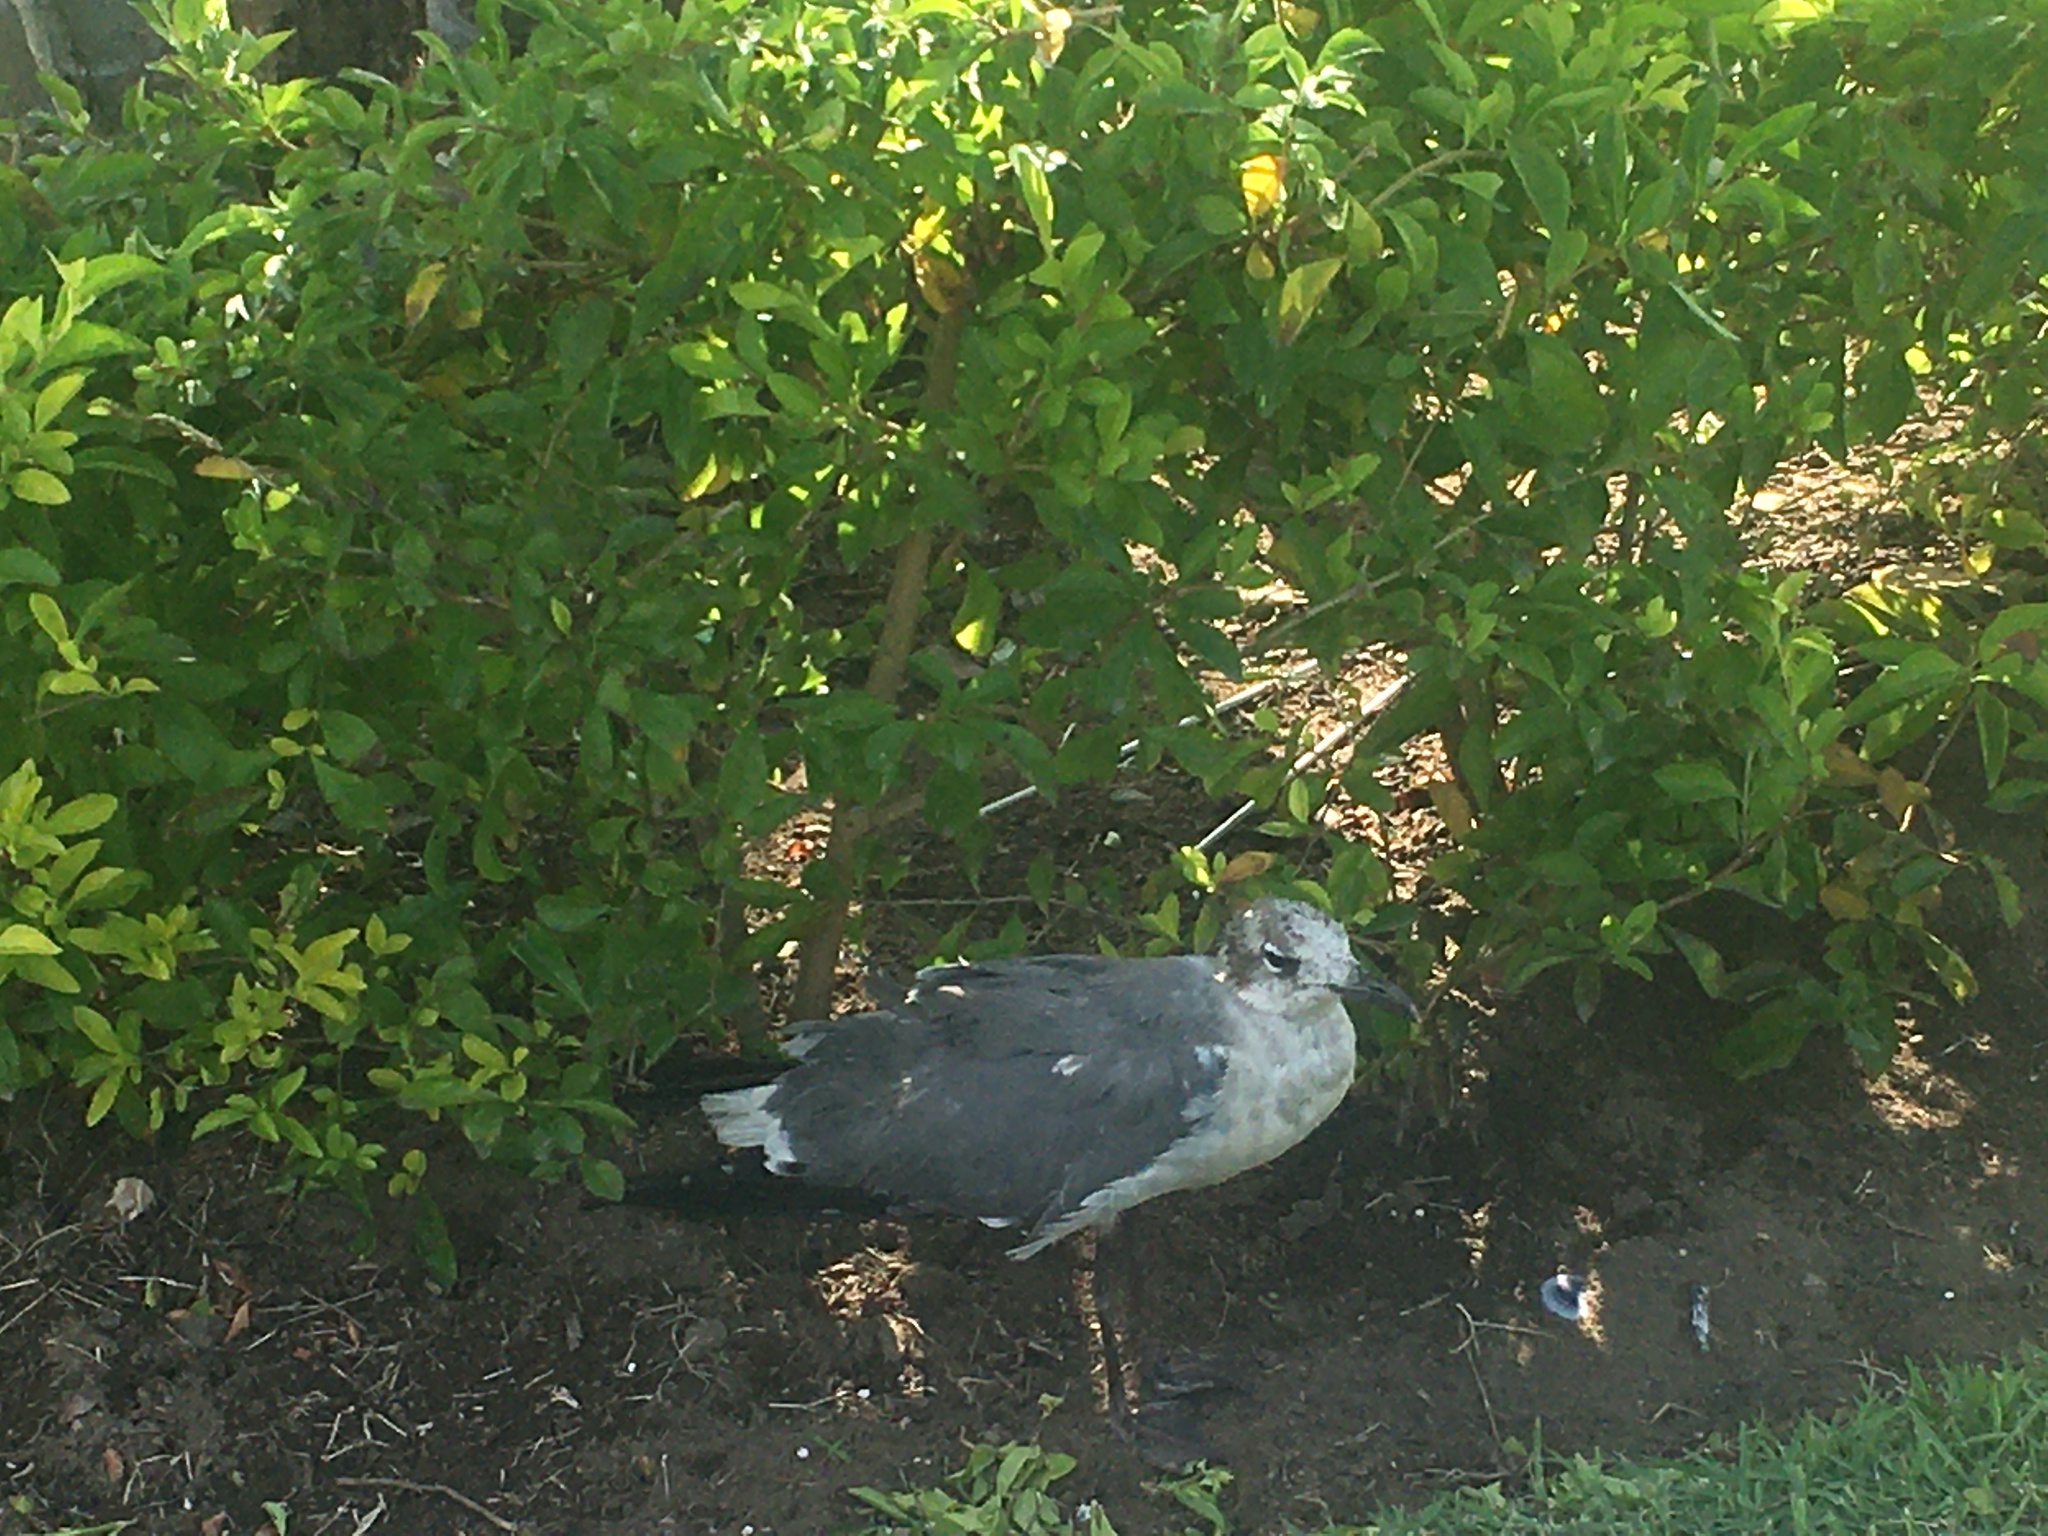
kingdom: Animalia
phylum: Chordata
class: Aves
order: Charadriiformes
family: Laridae
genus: Leucophaeus
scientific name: Leucophaeus atricilla
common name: Laughing gull
